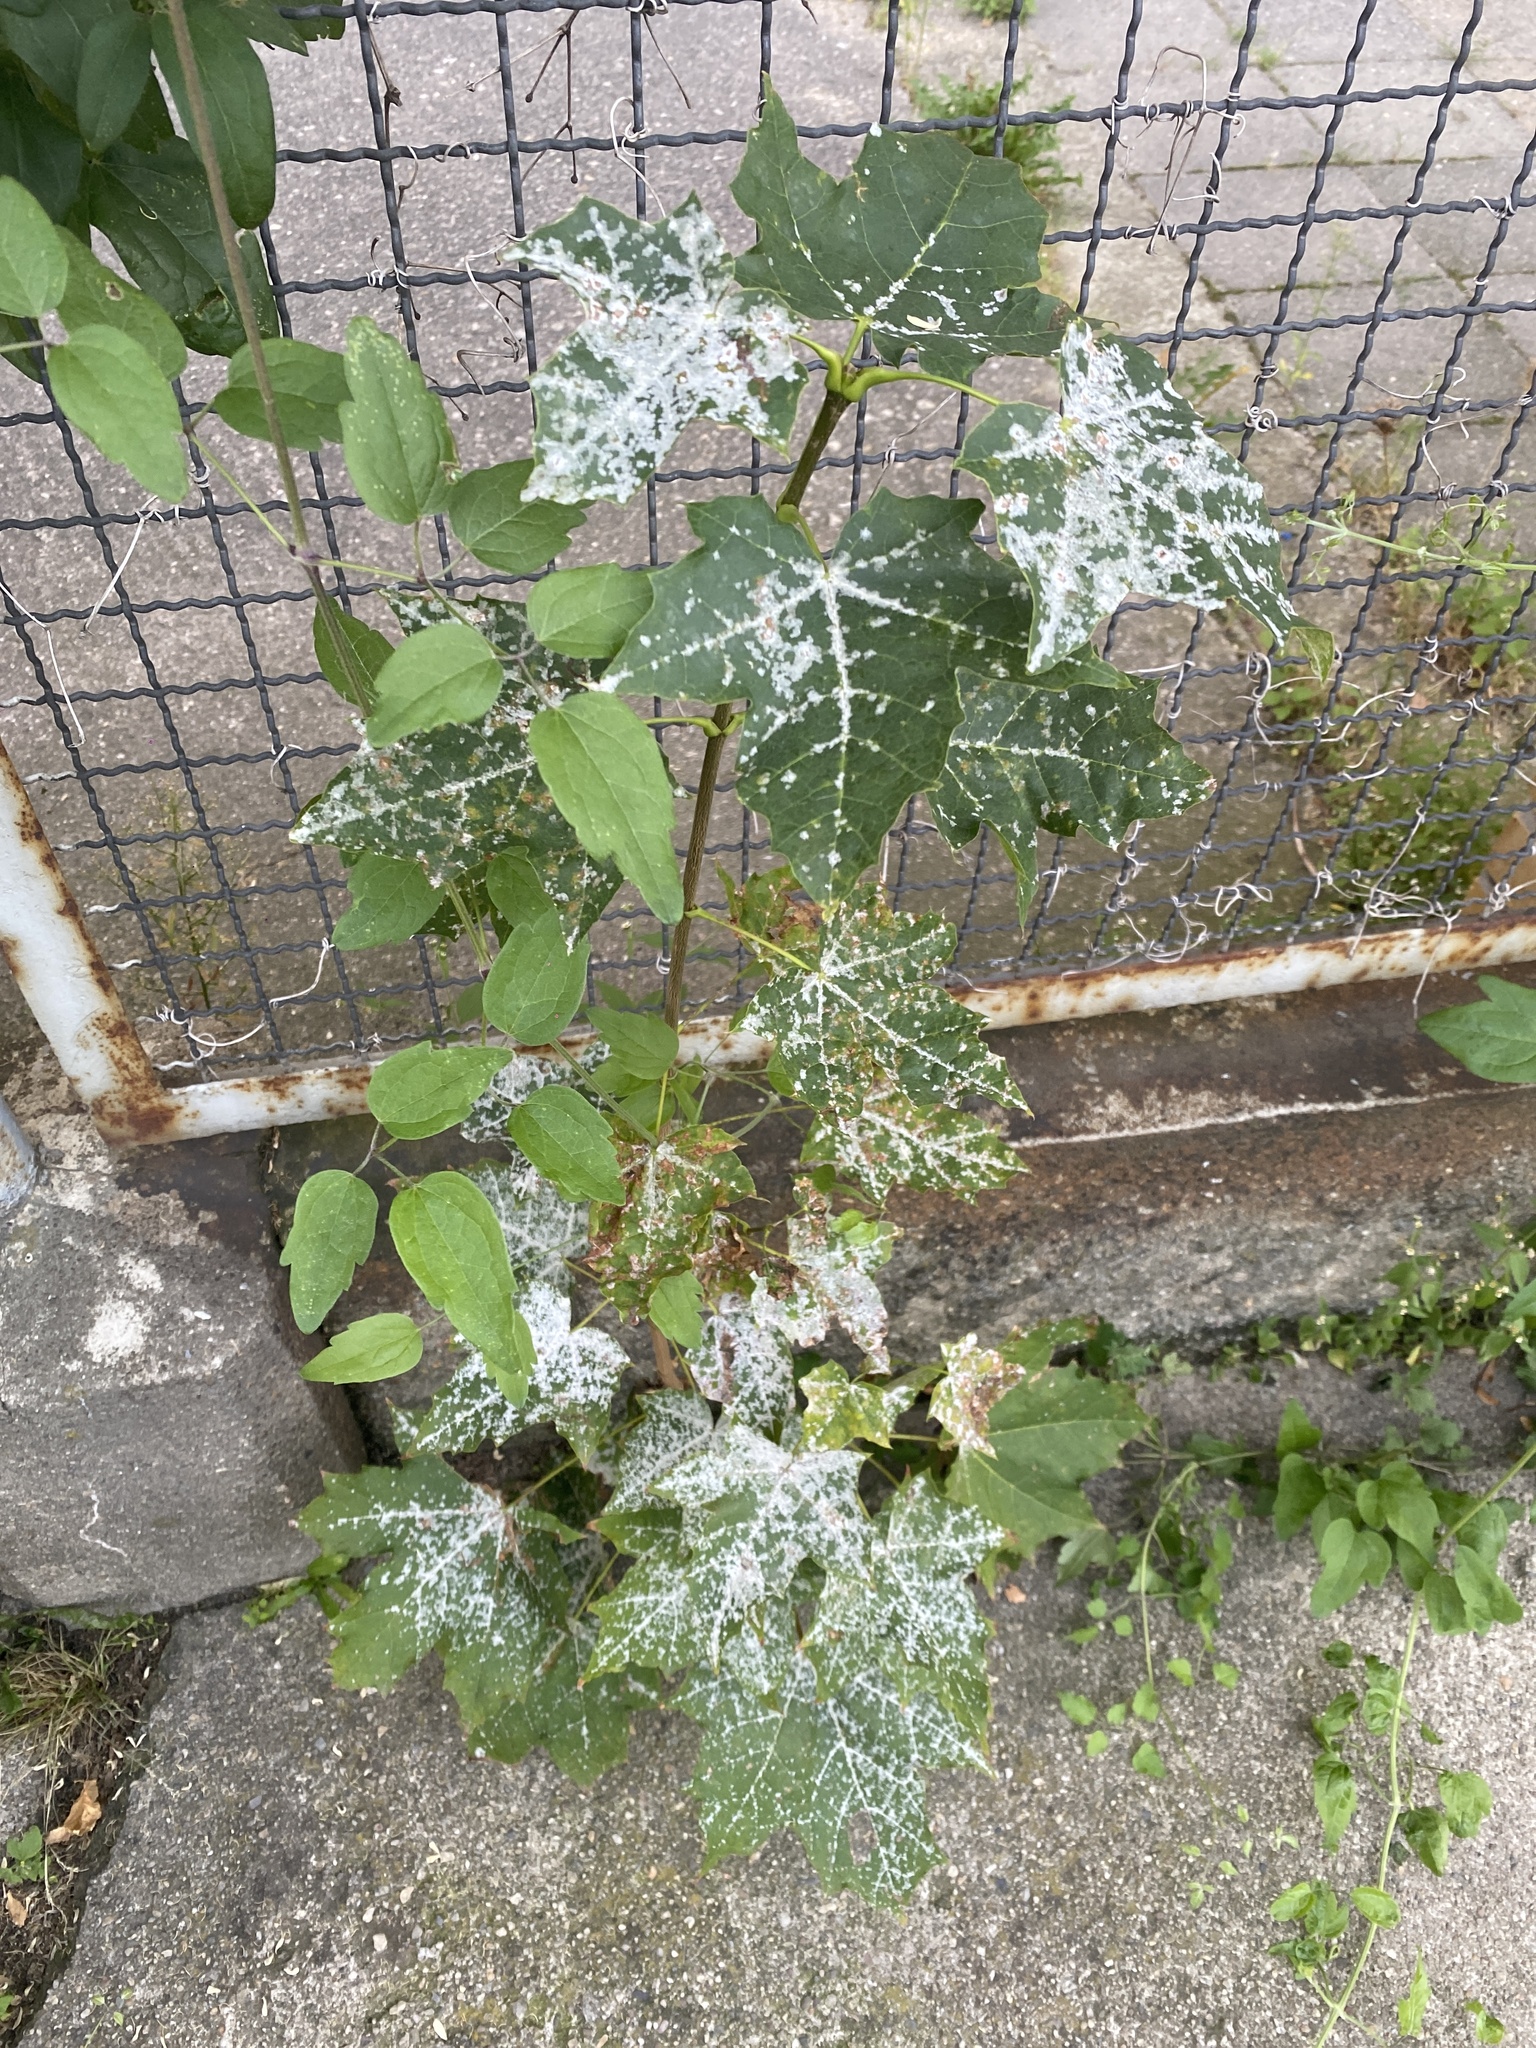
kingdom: Fungi
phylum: Ascomycota
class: Leotiomycetes
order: Helotiales
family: Erysiphaceae
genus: Sawadaea
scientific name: Sawadaea tulasnei
